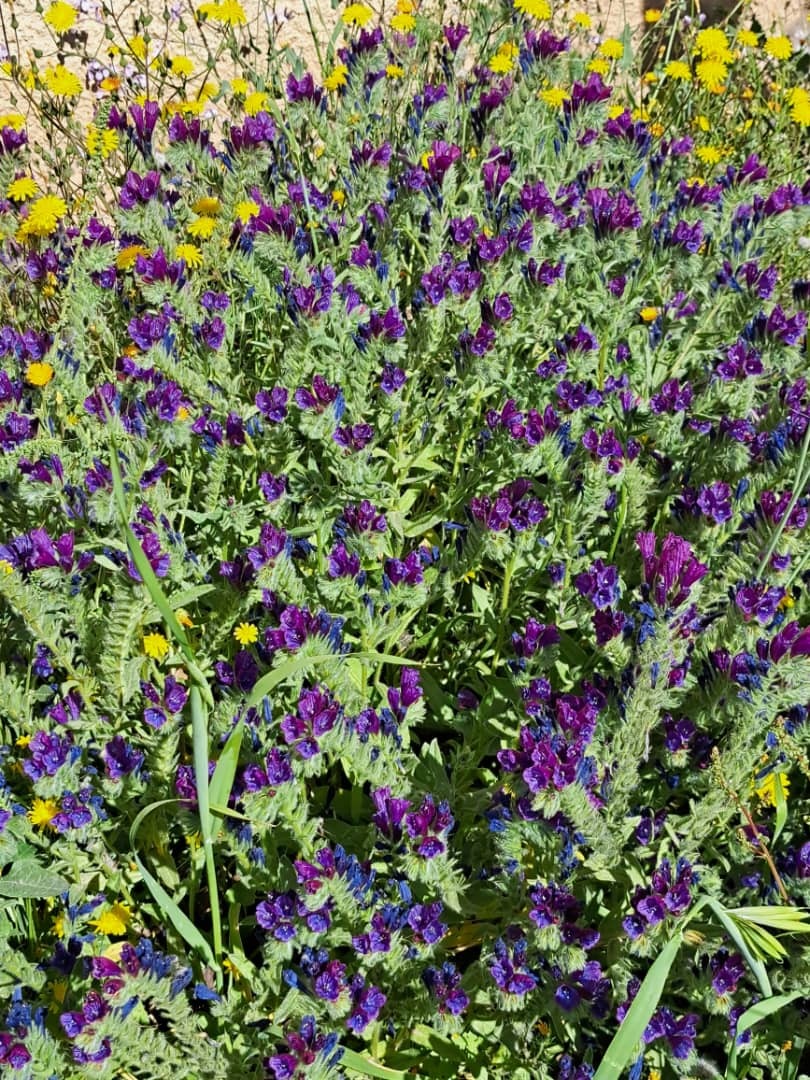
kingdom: Plantae
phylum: Tracheophyta
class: Magnoliopsida
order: Boraginales
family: Boraginaceae
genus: Echium
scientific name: Echium sabulicola
